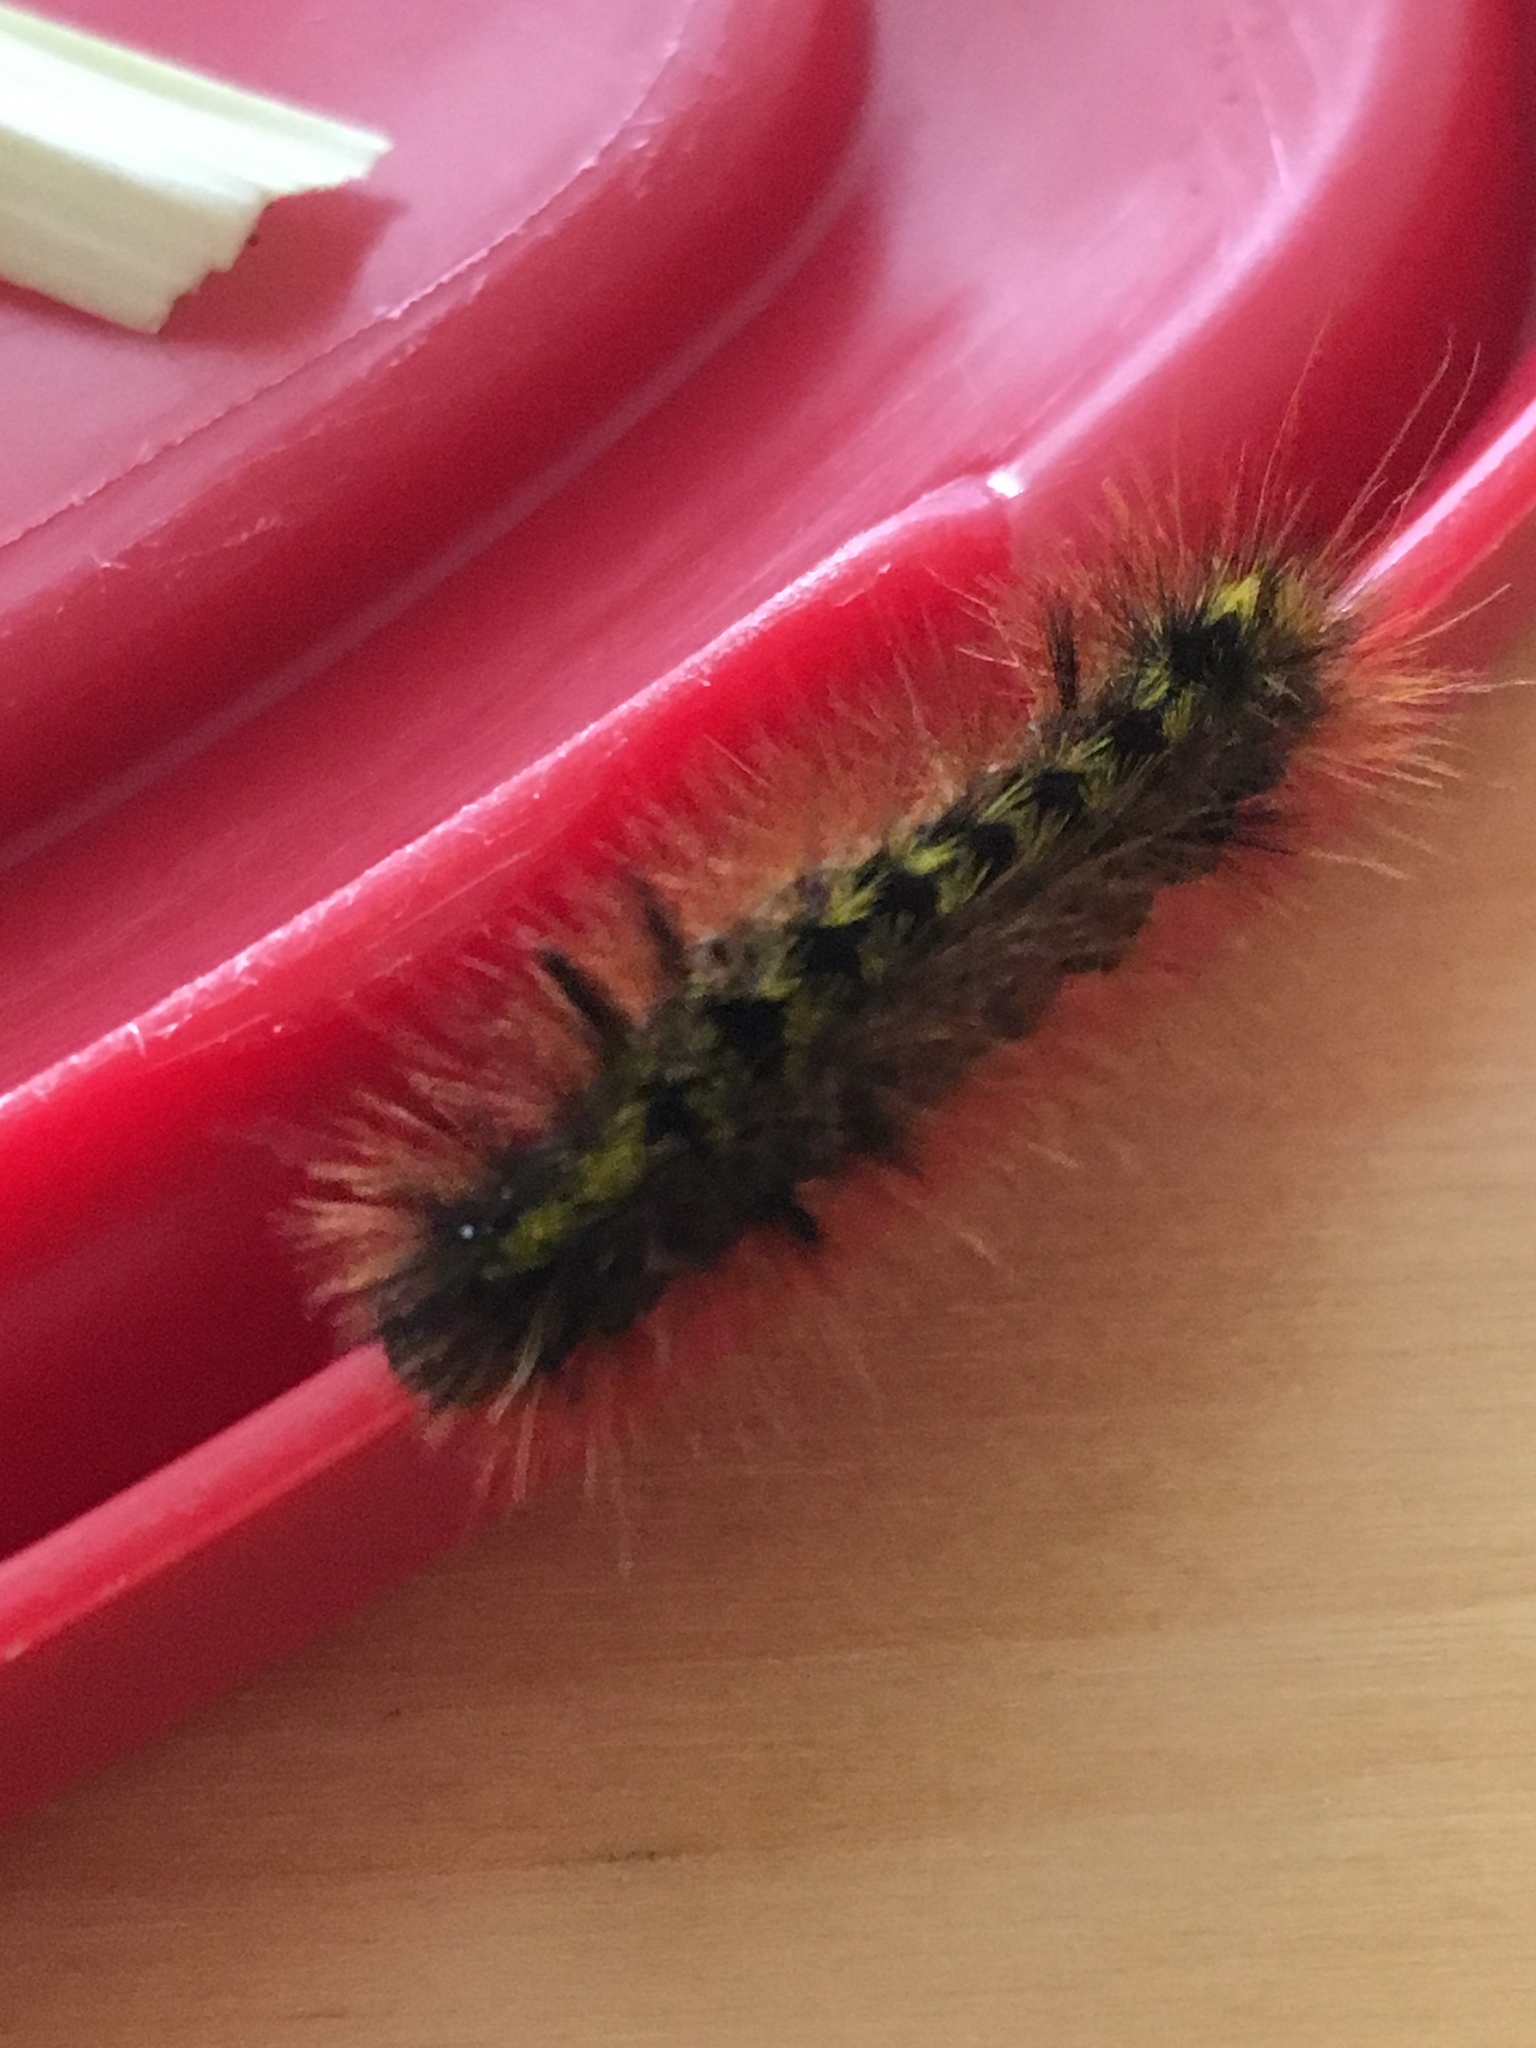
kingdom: Animalia
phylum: Arthropoda
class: Insecta
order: Lepidoptera
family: Erebidae
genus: Lophocampa
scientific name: Lophocampa argentata
